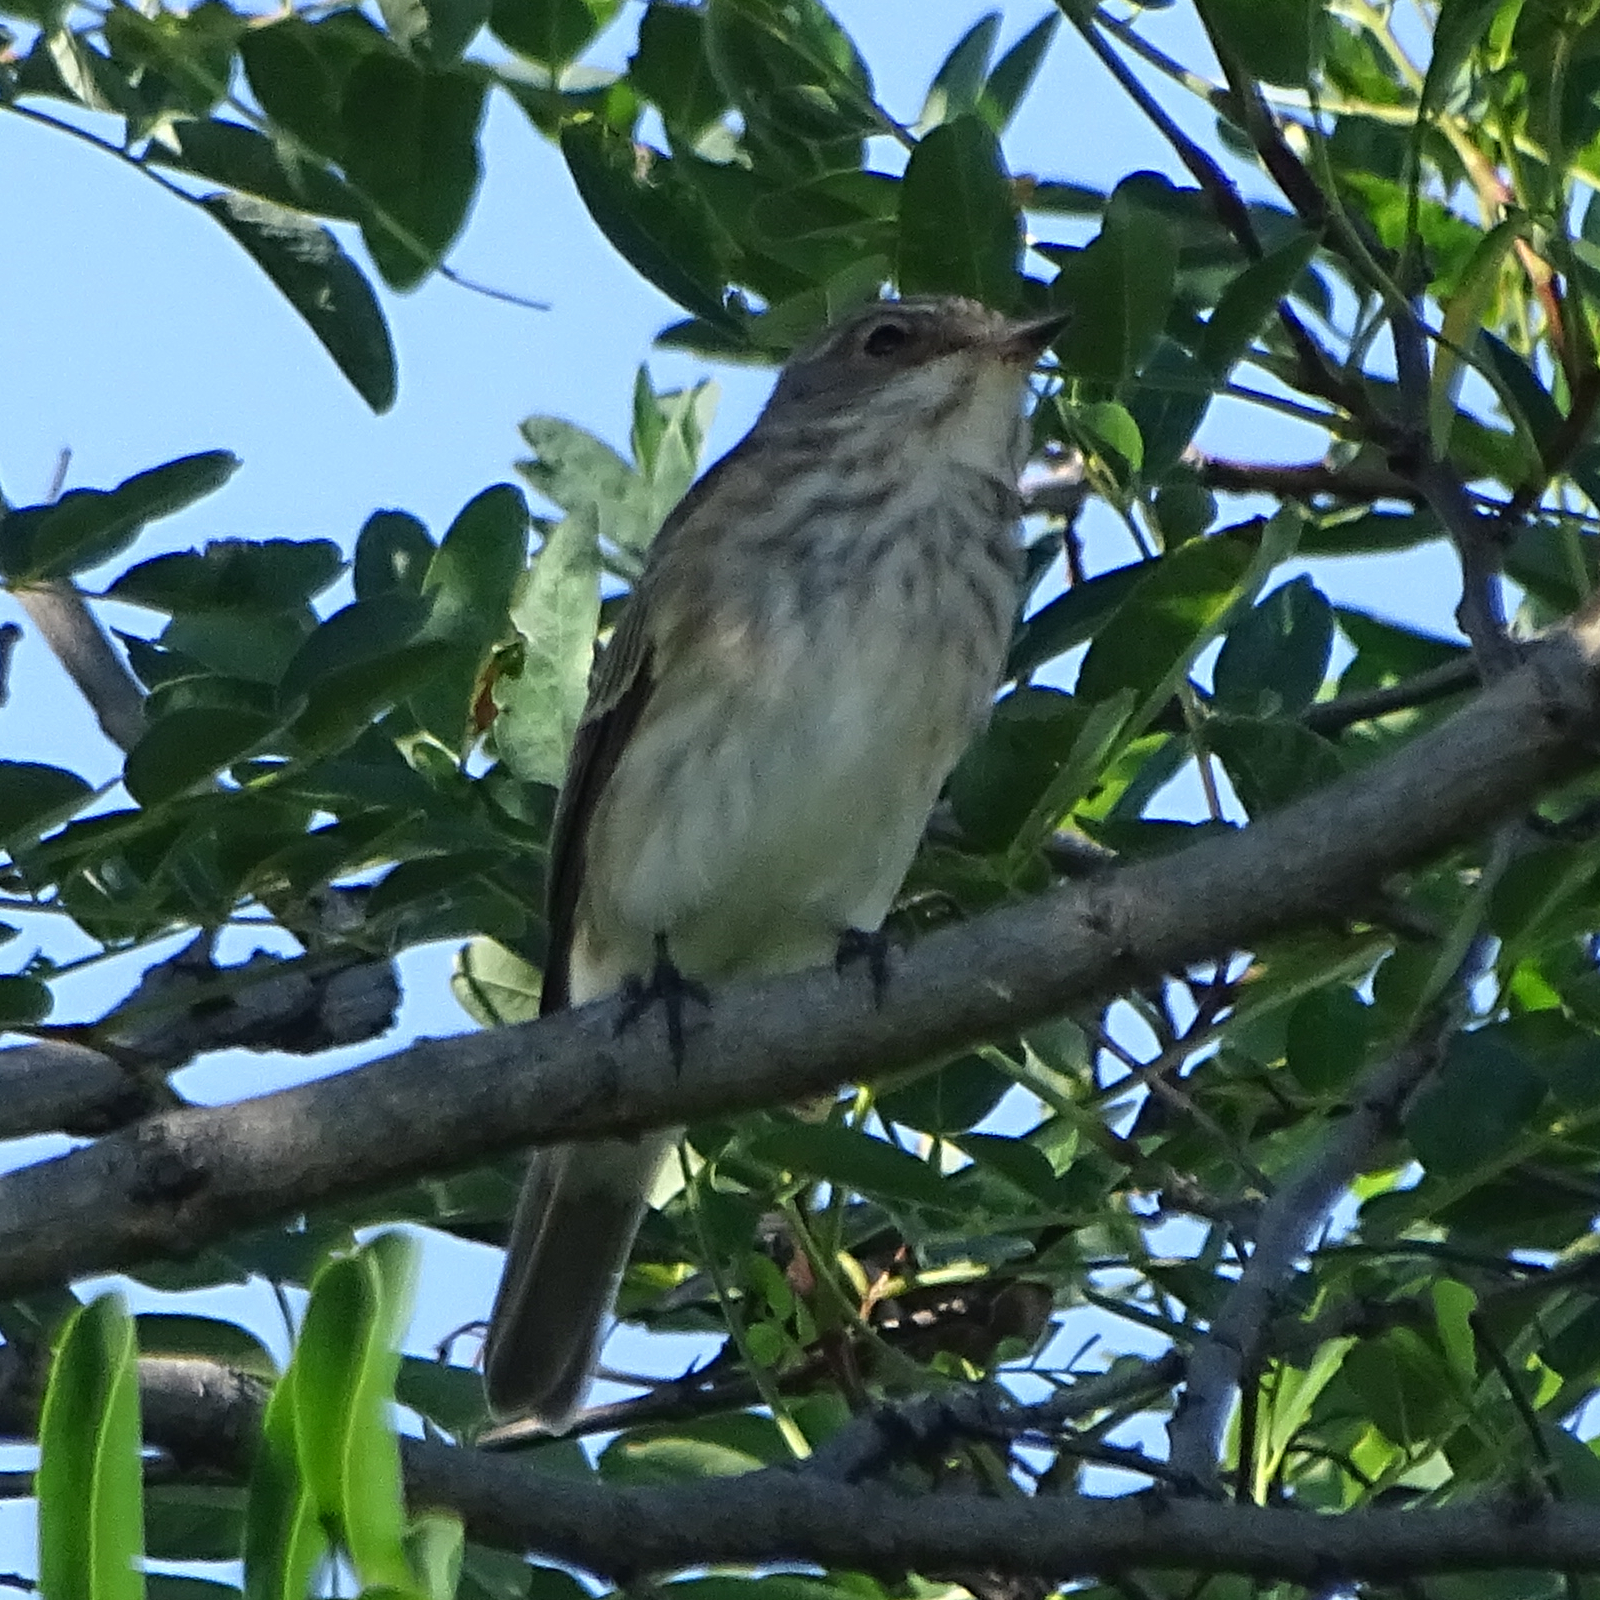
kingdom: Animalia
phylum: Chordata
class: Aves
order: Passeriformes
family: Muscicapidae
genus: Muscicapa
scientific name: Muscicapa striata
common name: Spotted flycatcher
